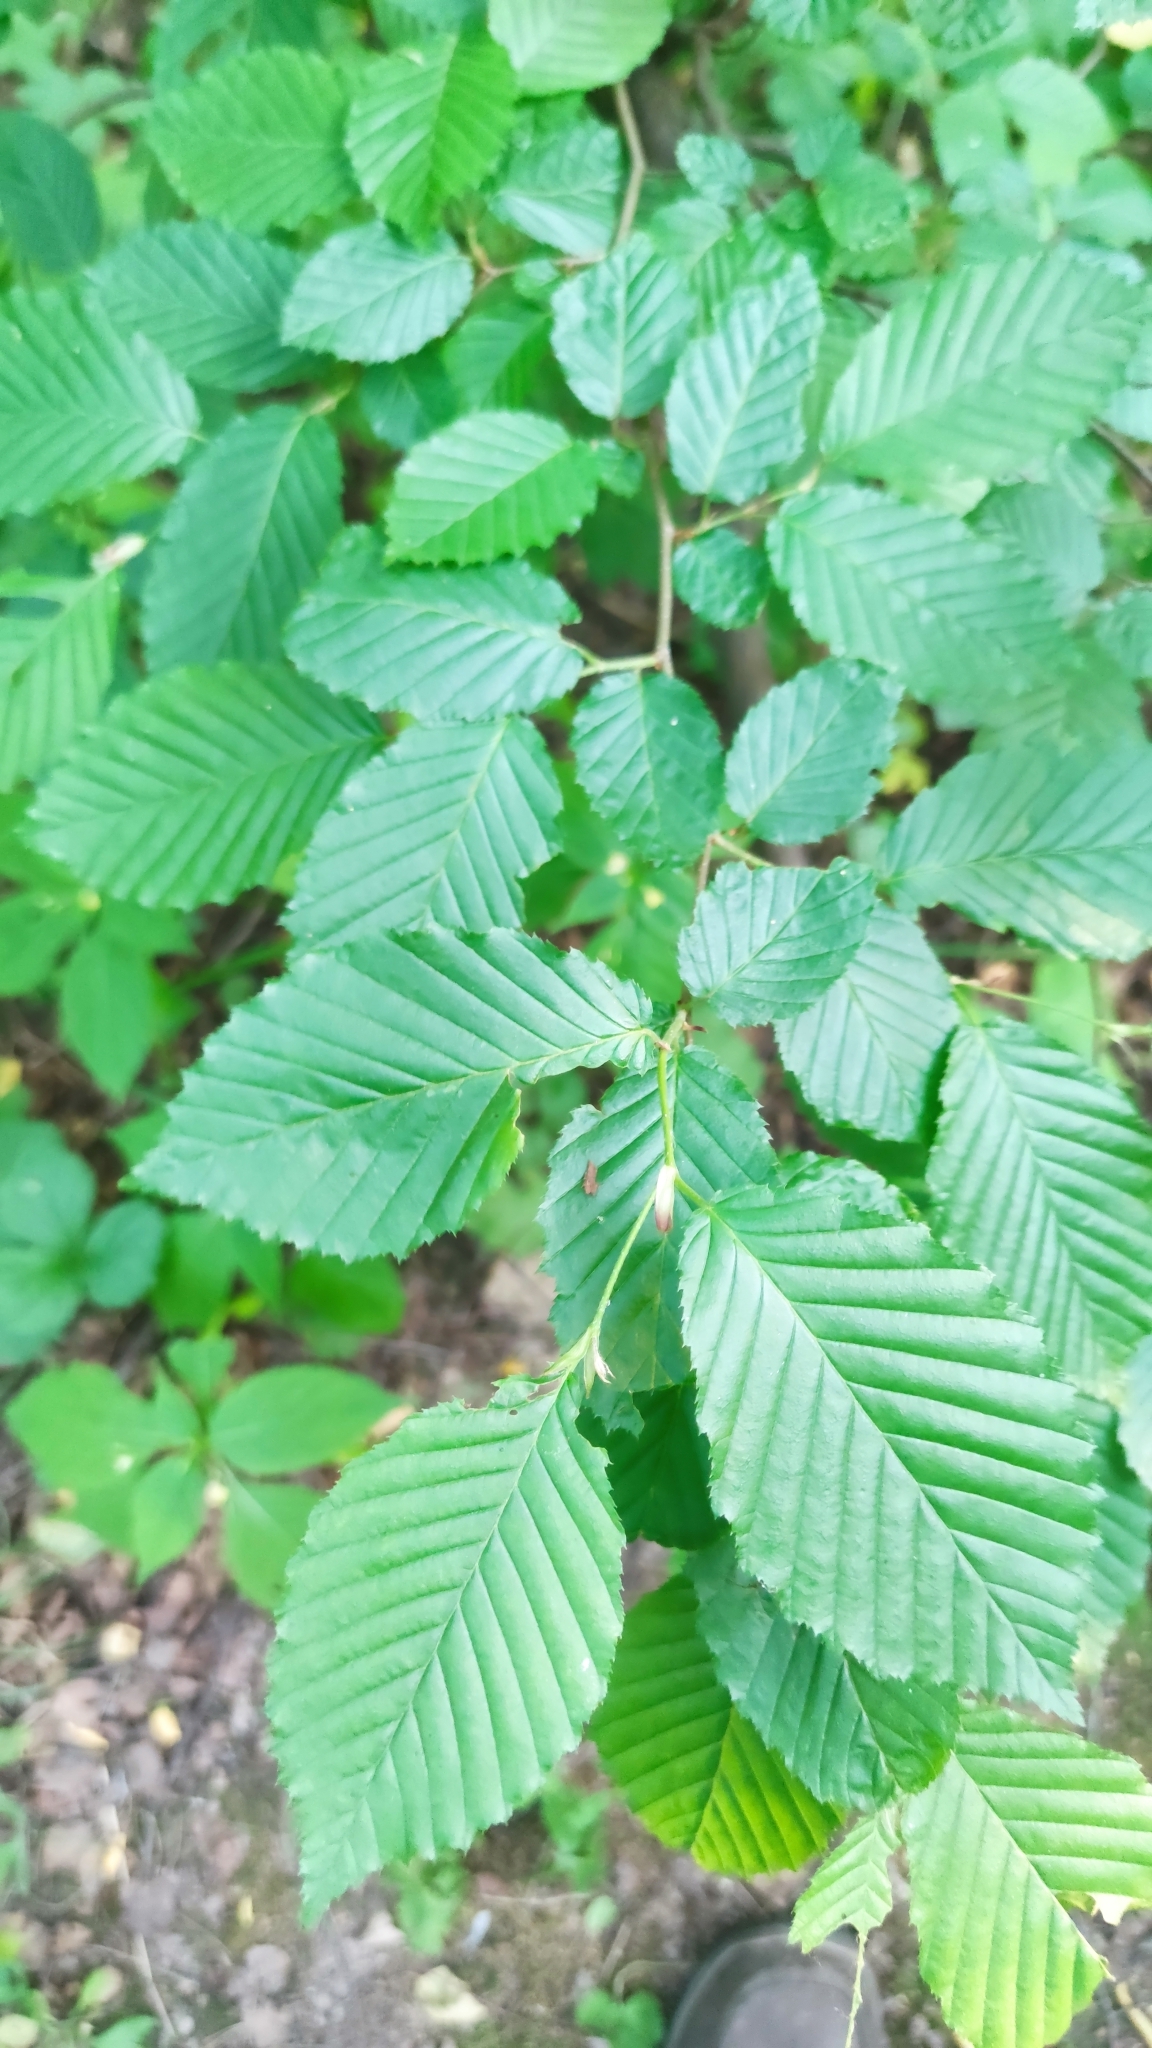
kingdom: Plantae
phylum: Tracheophyta
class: Magnoliopsida
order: Fagales
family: Betulaceae
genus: Carpinus
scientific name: Carpinus betulus
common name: Hornbeam
